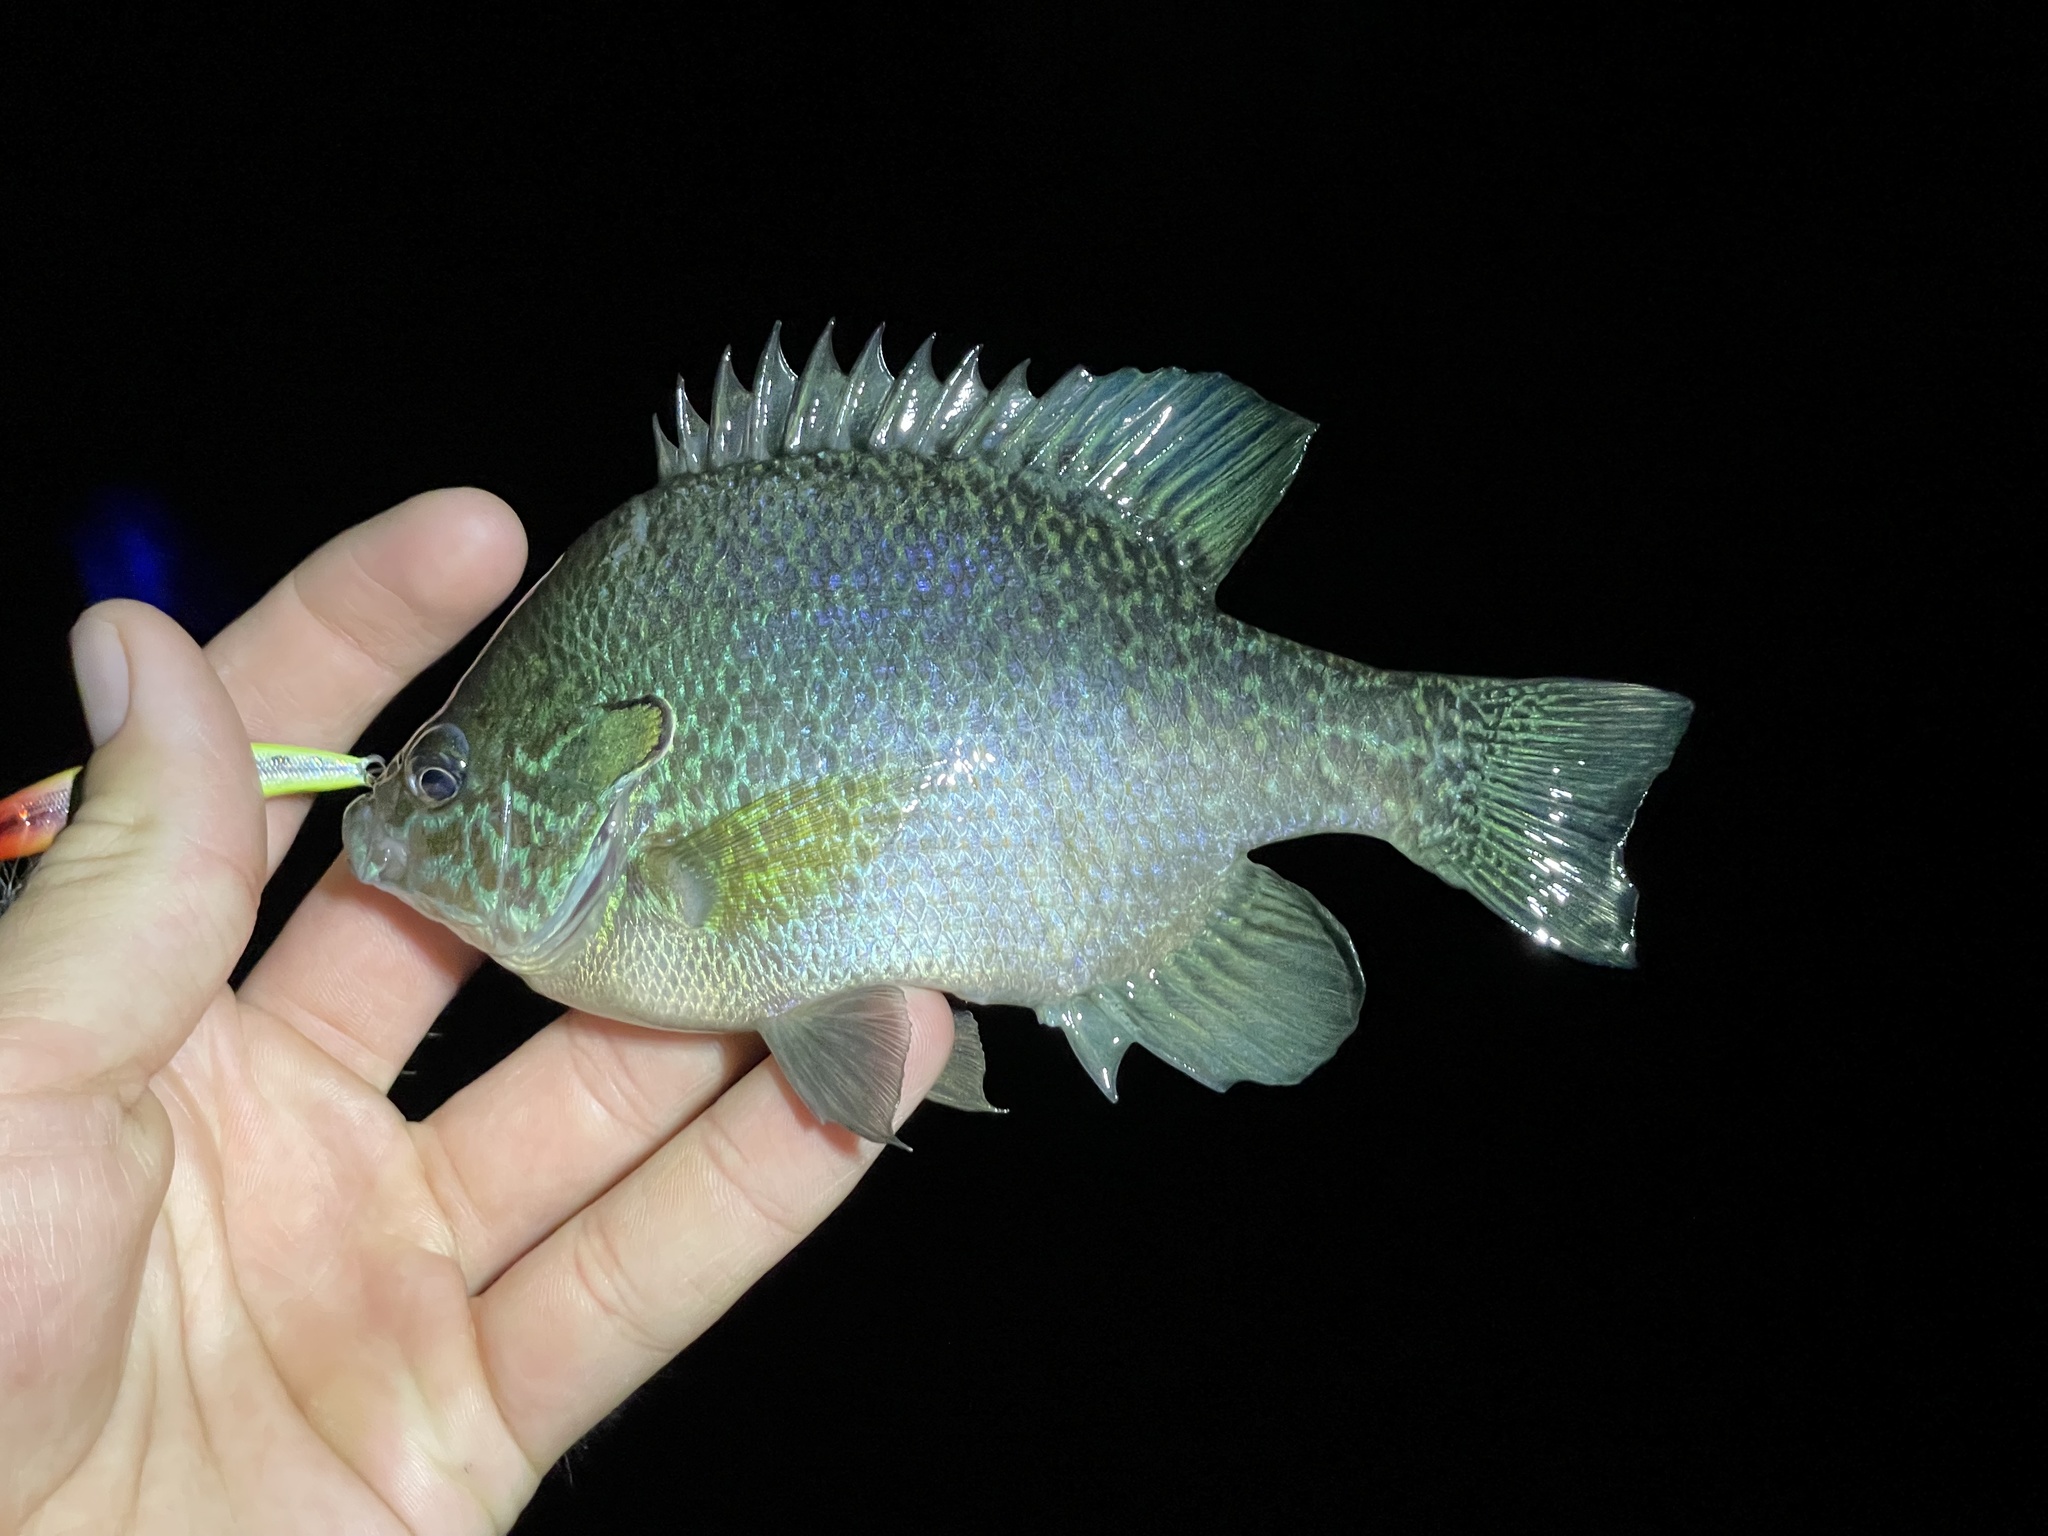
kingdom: Animalia
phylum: Chordata
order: Perciformes
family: Centrarchidae
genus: Lepomis
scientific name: Lepomis aquilensis
